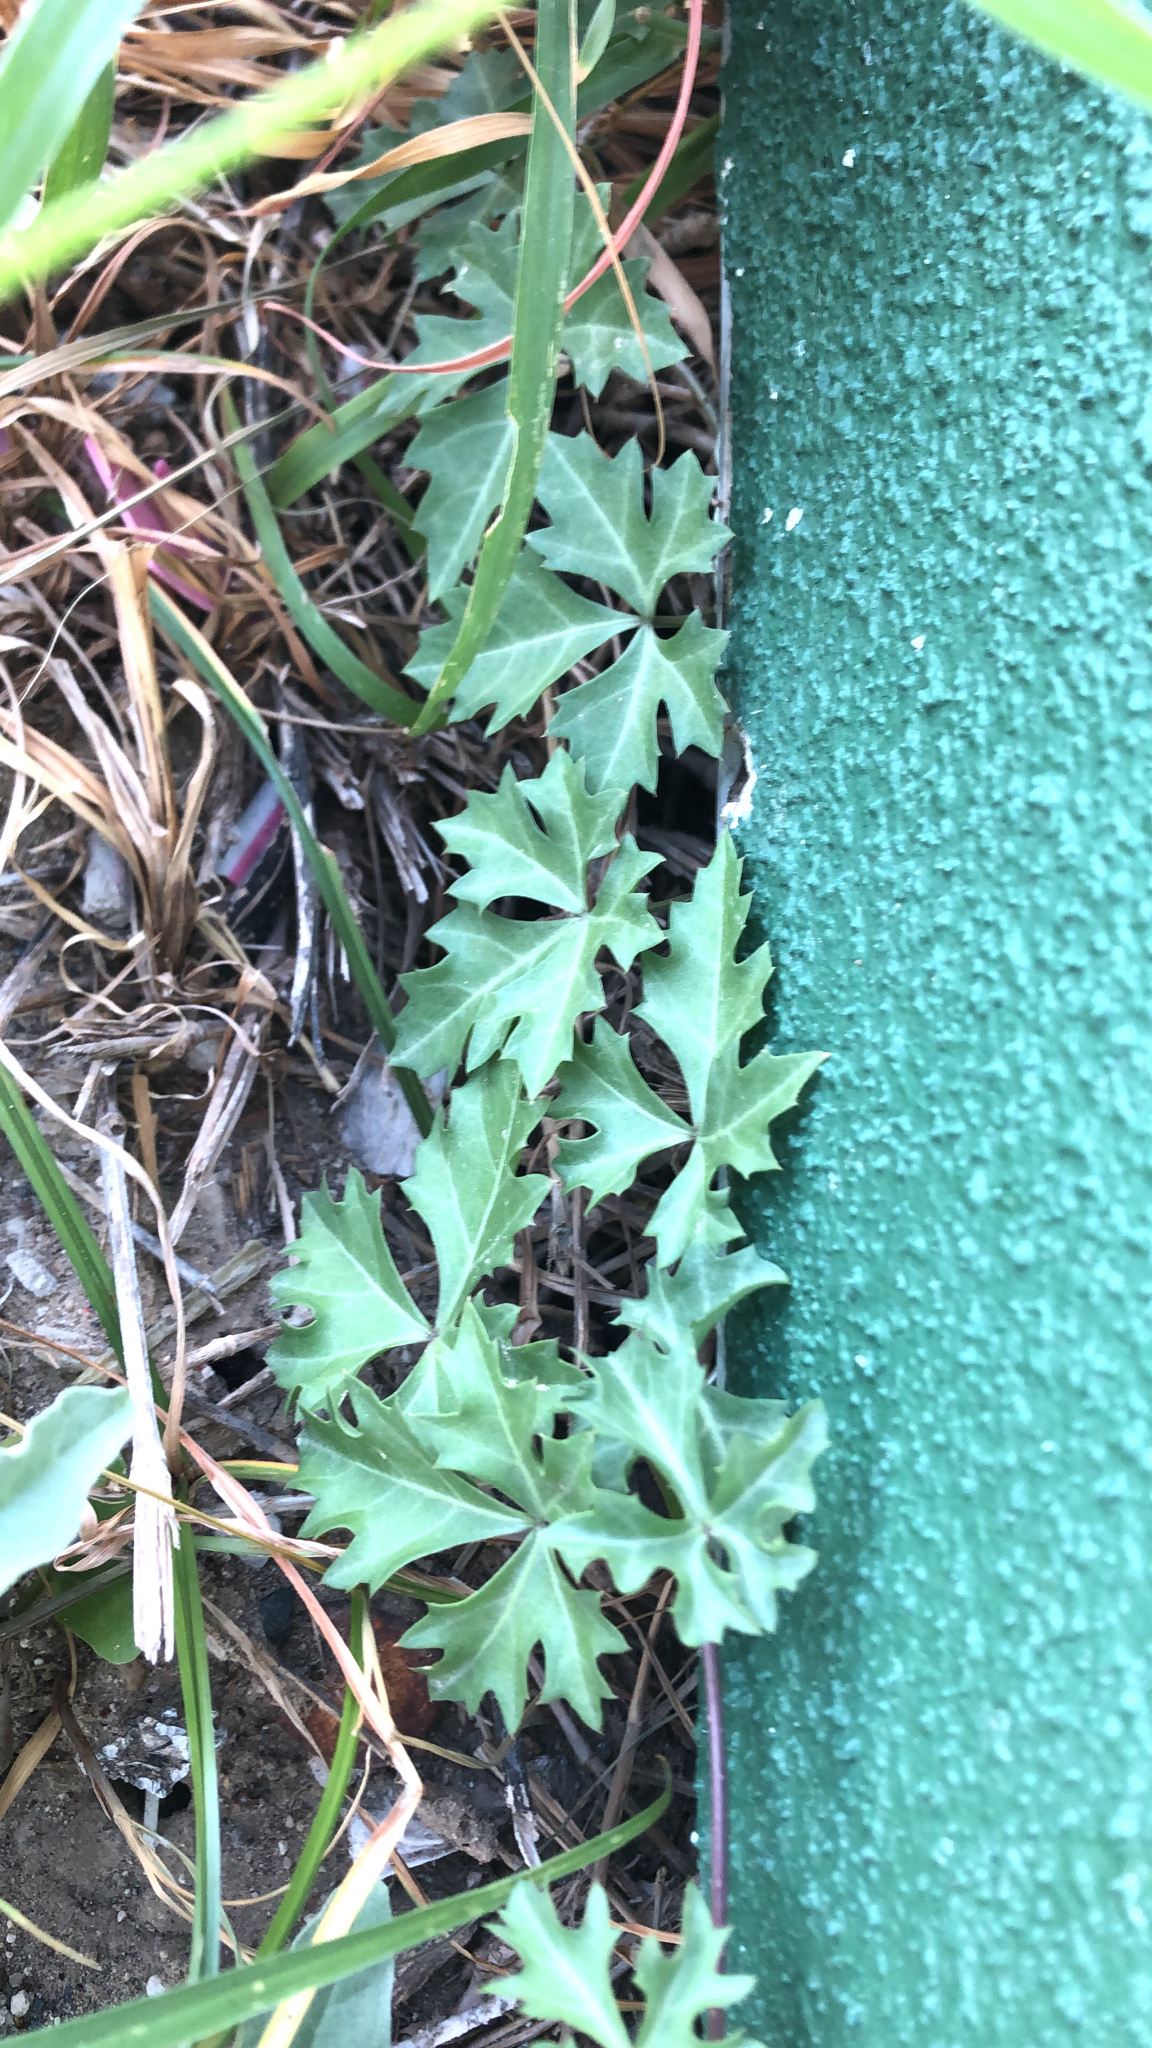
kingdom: Plantae
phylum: Tracheophyta
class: Magnoliopsida
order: Vitales
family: Vitaceae
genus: Cissus
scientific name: Cissus trifoliata
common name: Vine-sorrel
